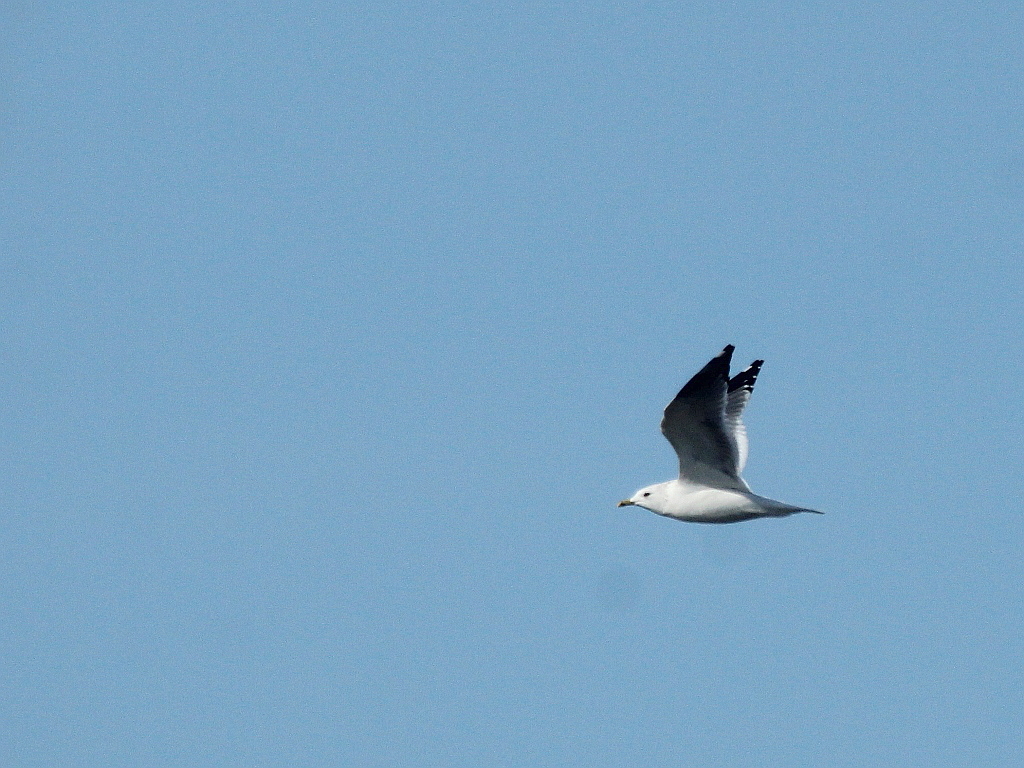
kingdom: Animalia
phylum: Chordata
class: Aves
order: Charadriiformes
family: Laridae
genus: Larus
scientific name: Larus canus
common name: Mew gull
